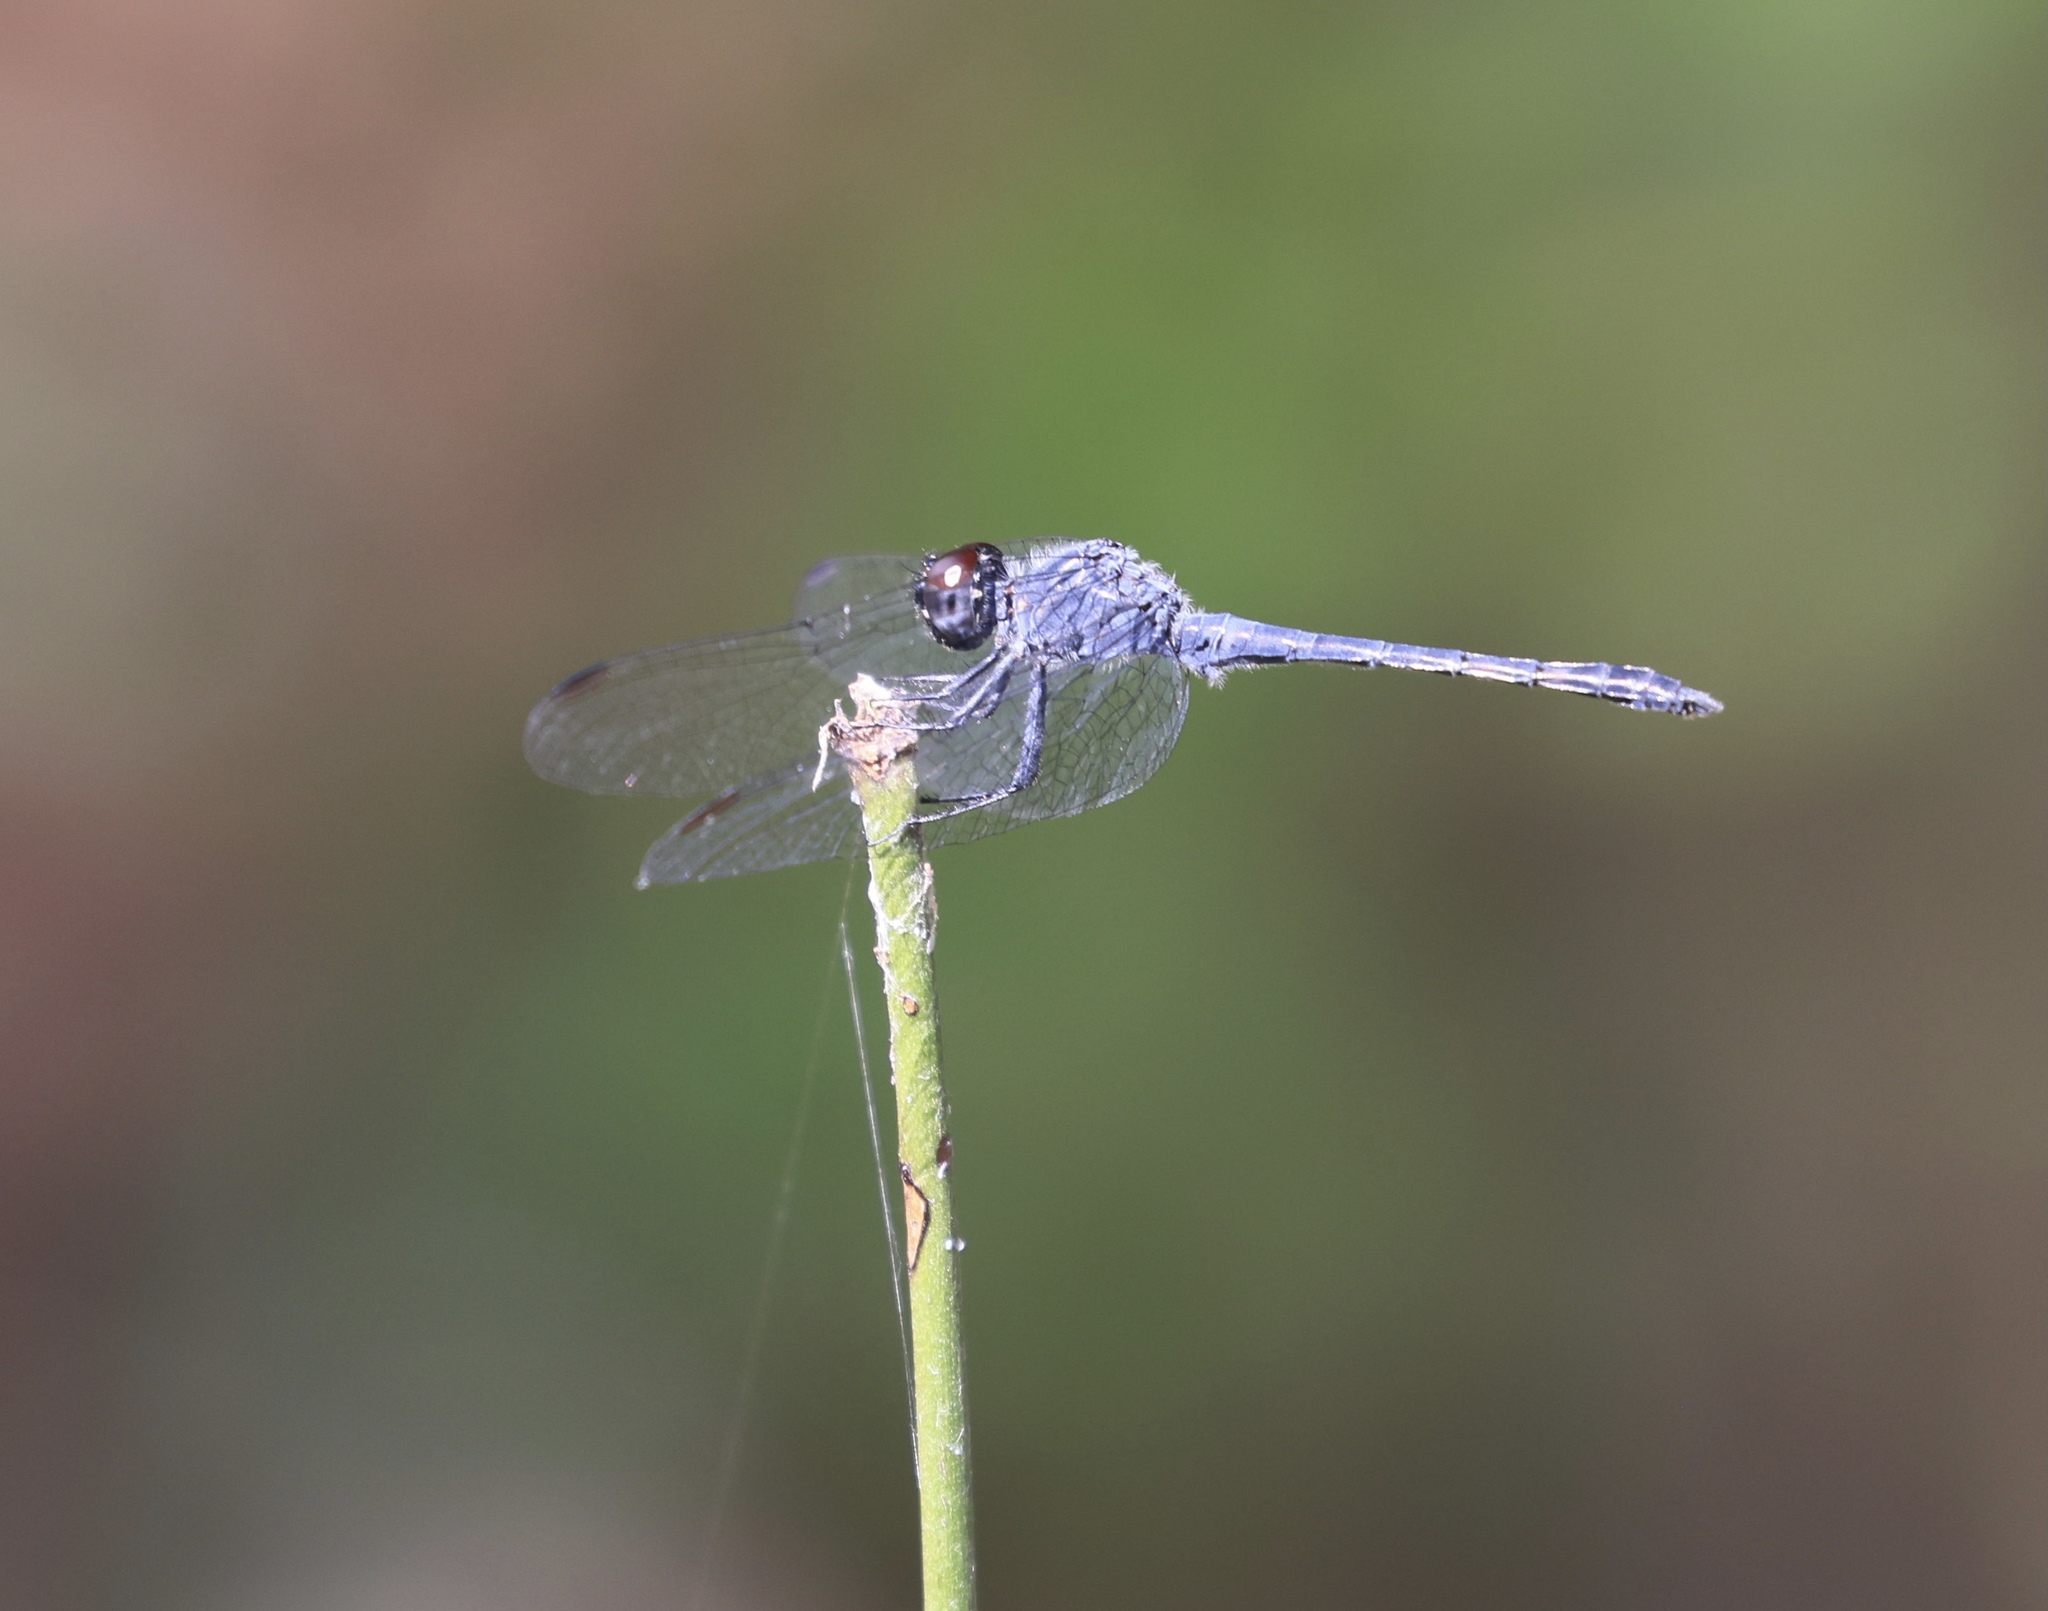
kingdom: Animalia
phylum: Arthropoda
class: Insecta
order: Odonata
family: Libellulidae
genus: Erythrodiplax
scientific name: Erythrodiplax berenice
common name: Seaside dragonlet
